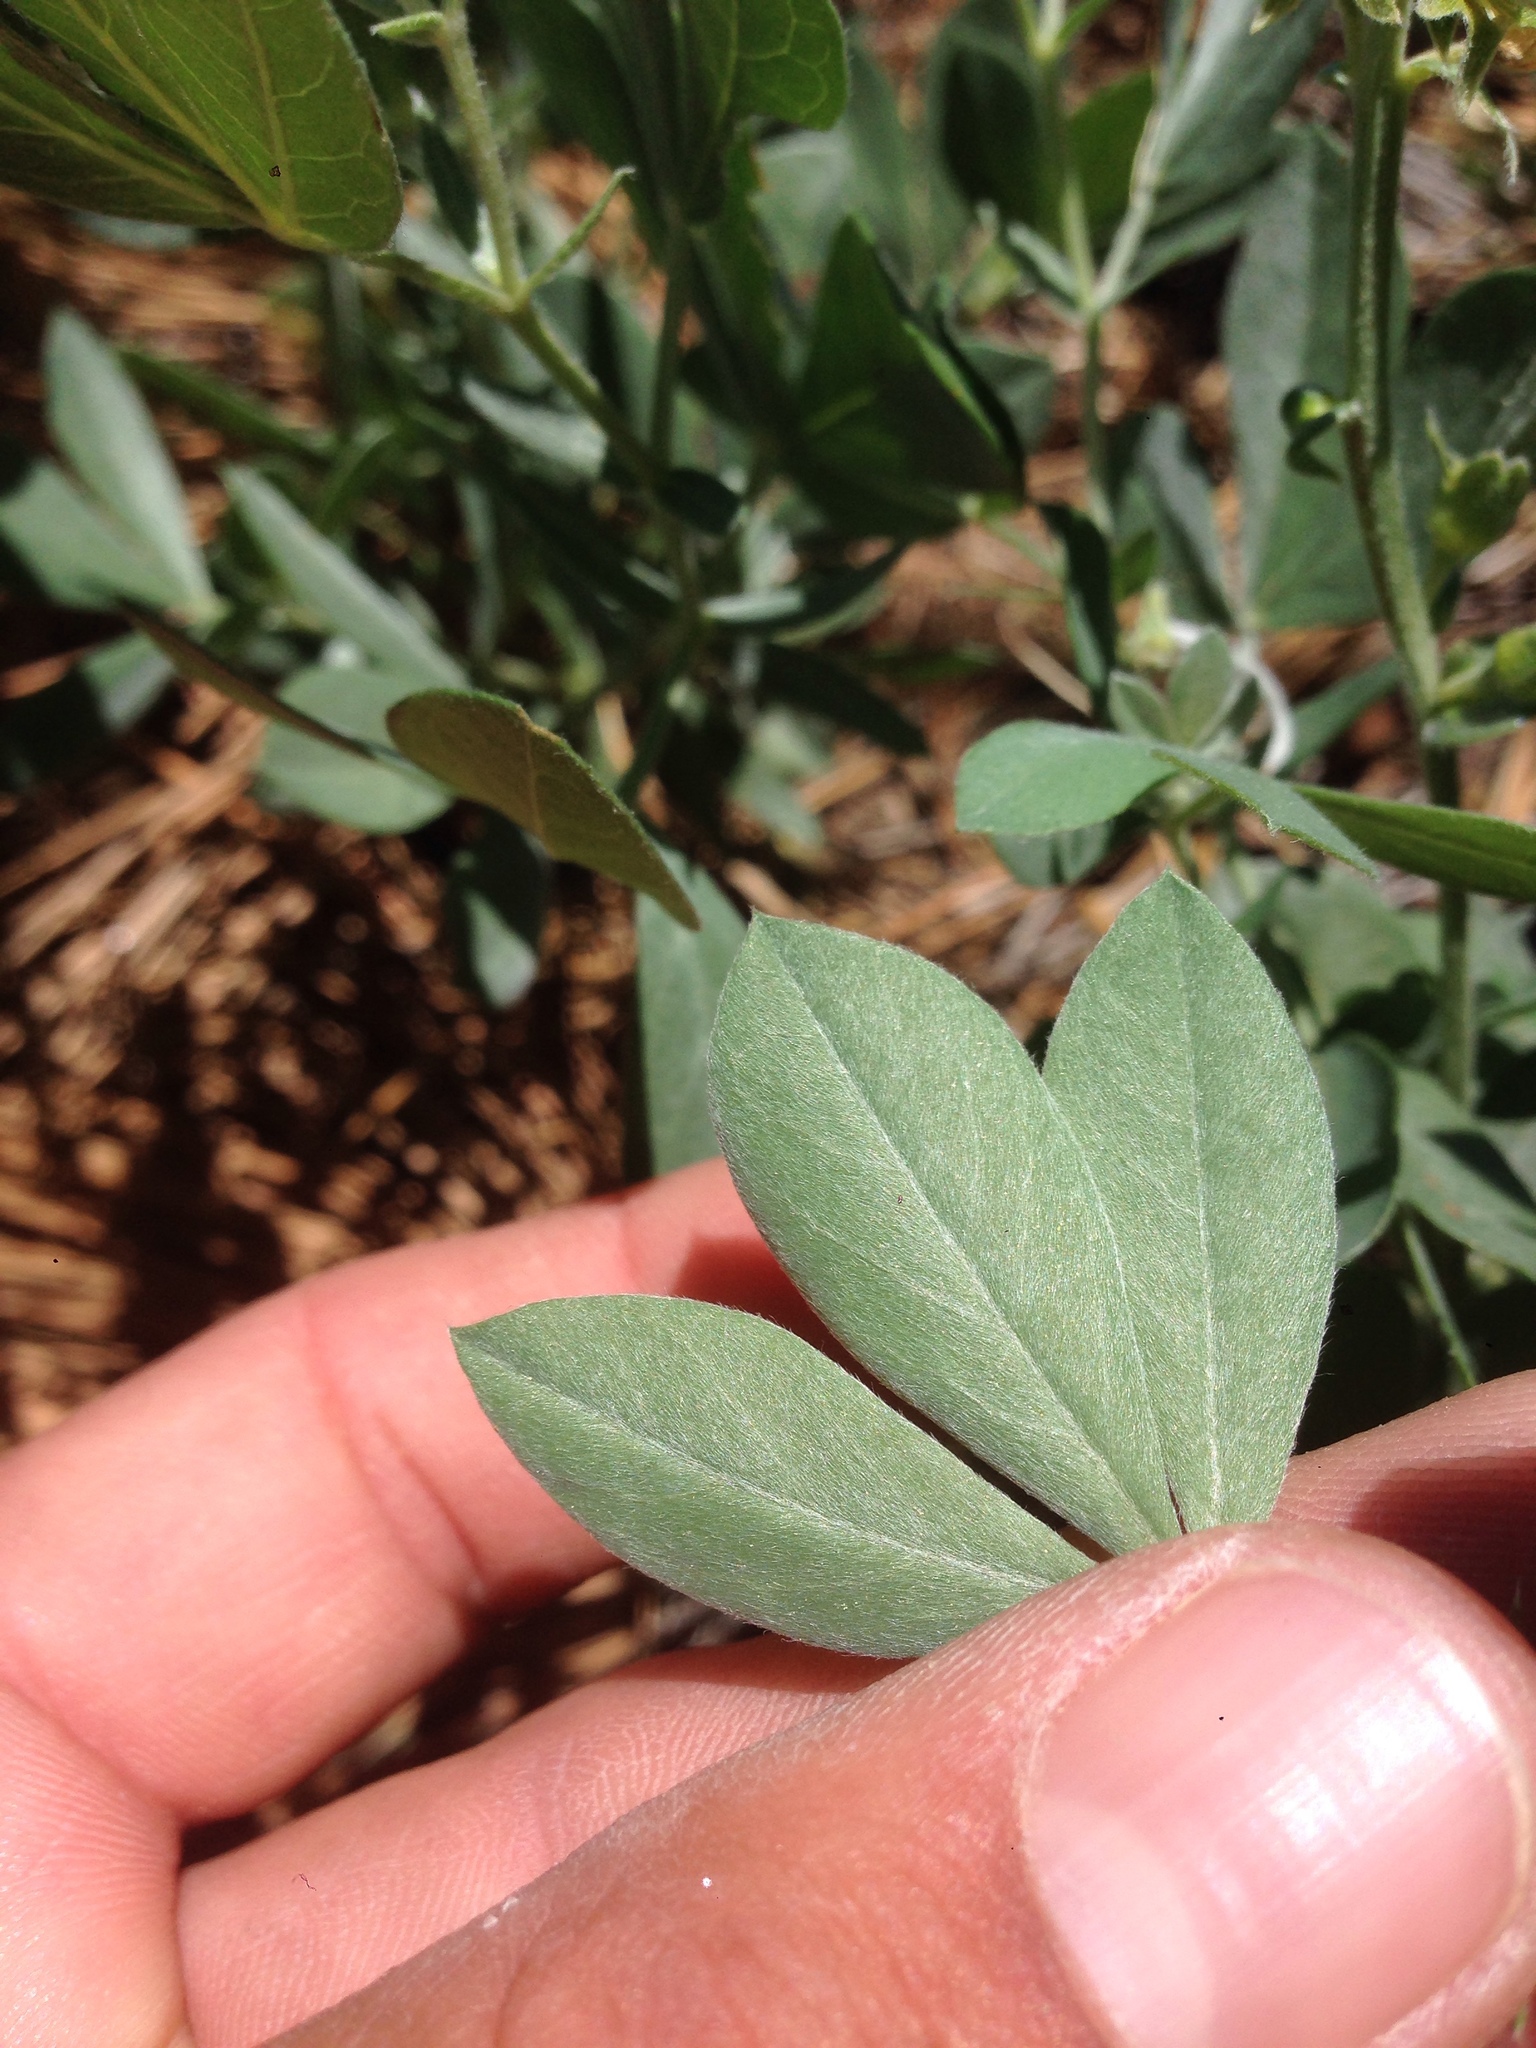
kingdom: Plantae
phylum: Tracheophyta
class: Magnoliopsida
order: Fabales
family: Fabaceae
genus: Thermopsis
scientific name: Thermopsis californica
